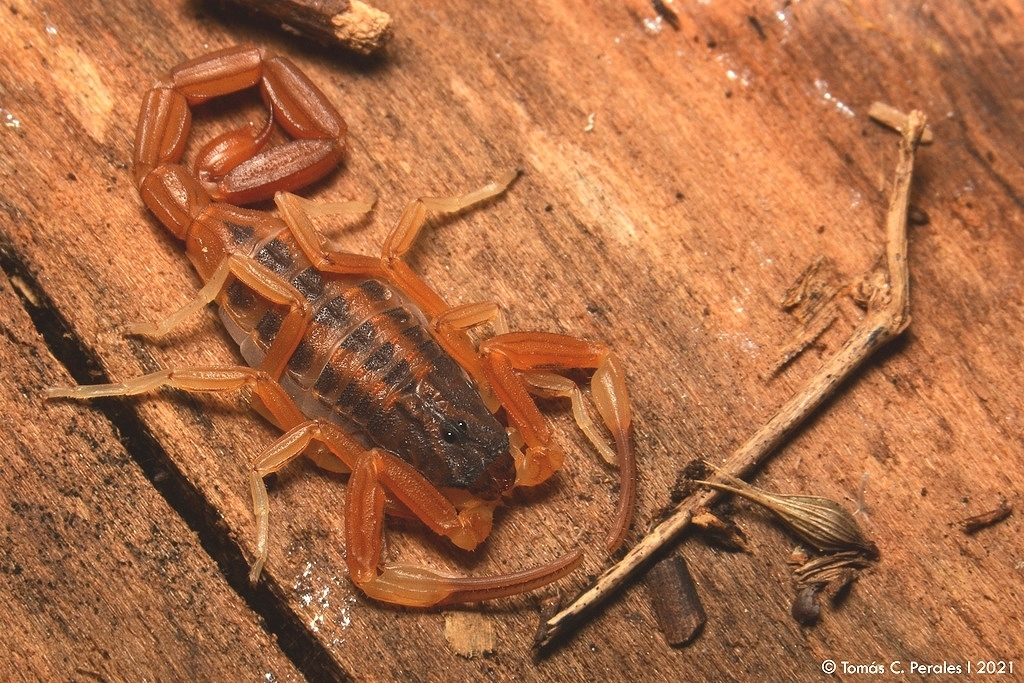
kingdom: Animalia
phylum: Arthropoda
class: Arachnida
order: Scorpiones
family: Buthidae
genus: Tityus
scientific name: Tityus carrilloi
